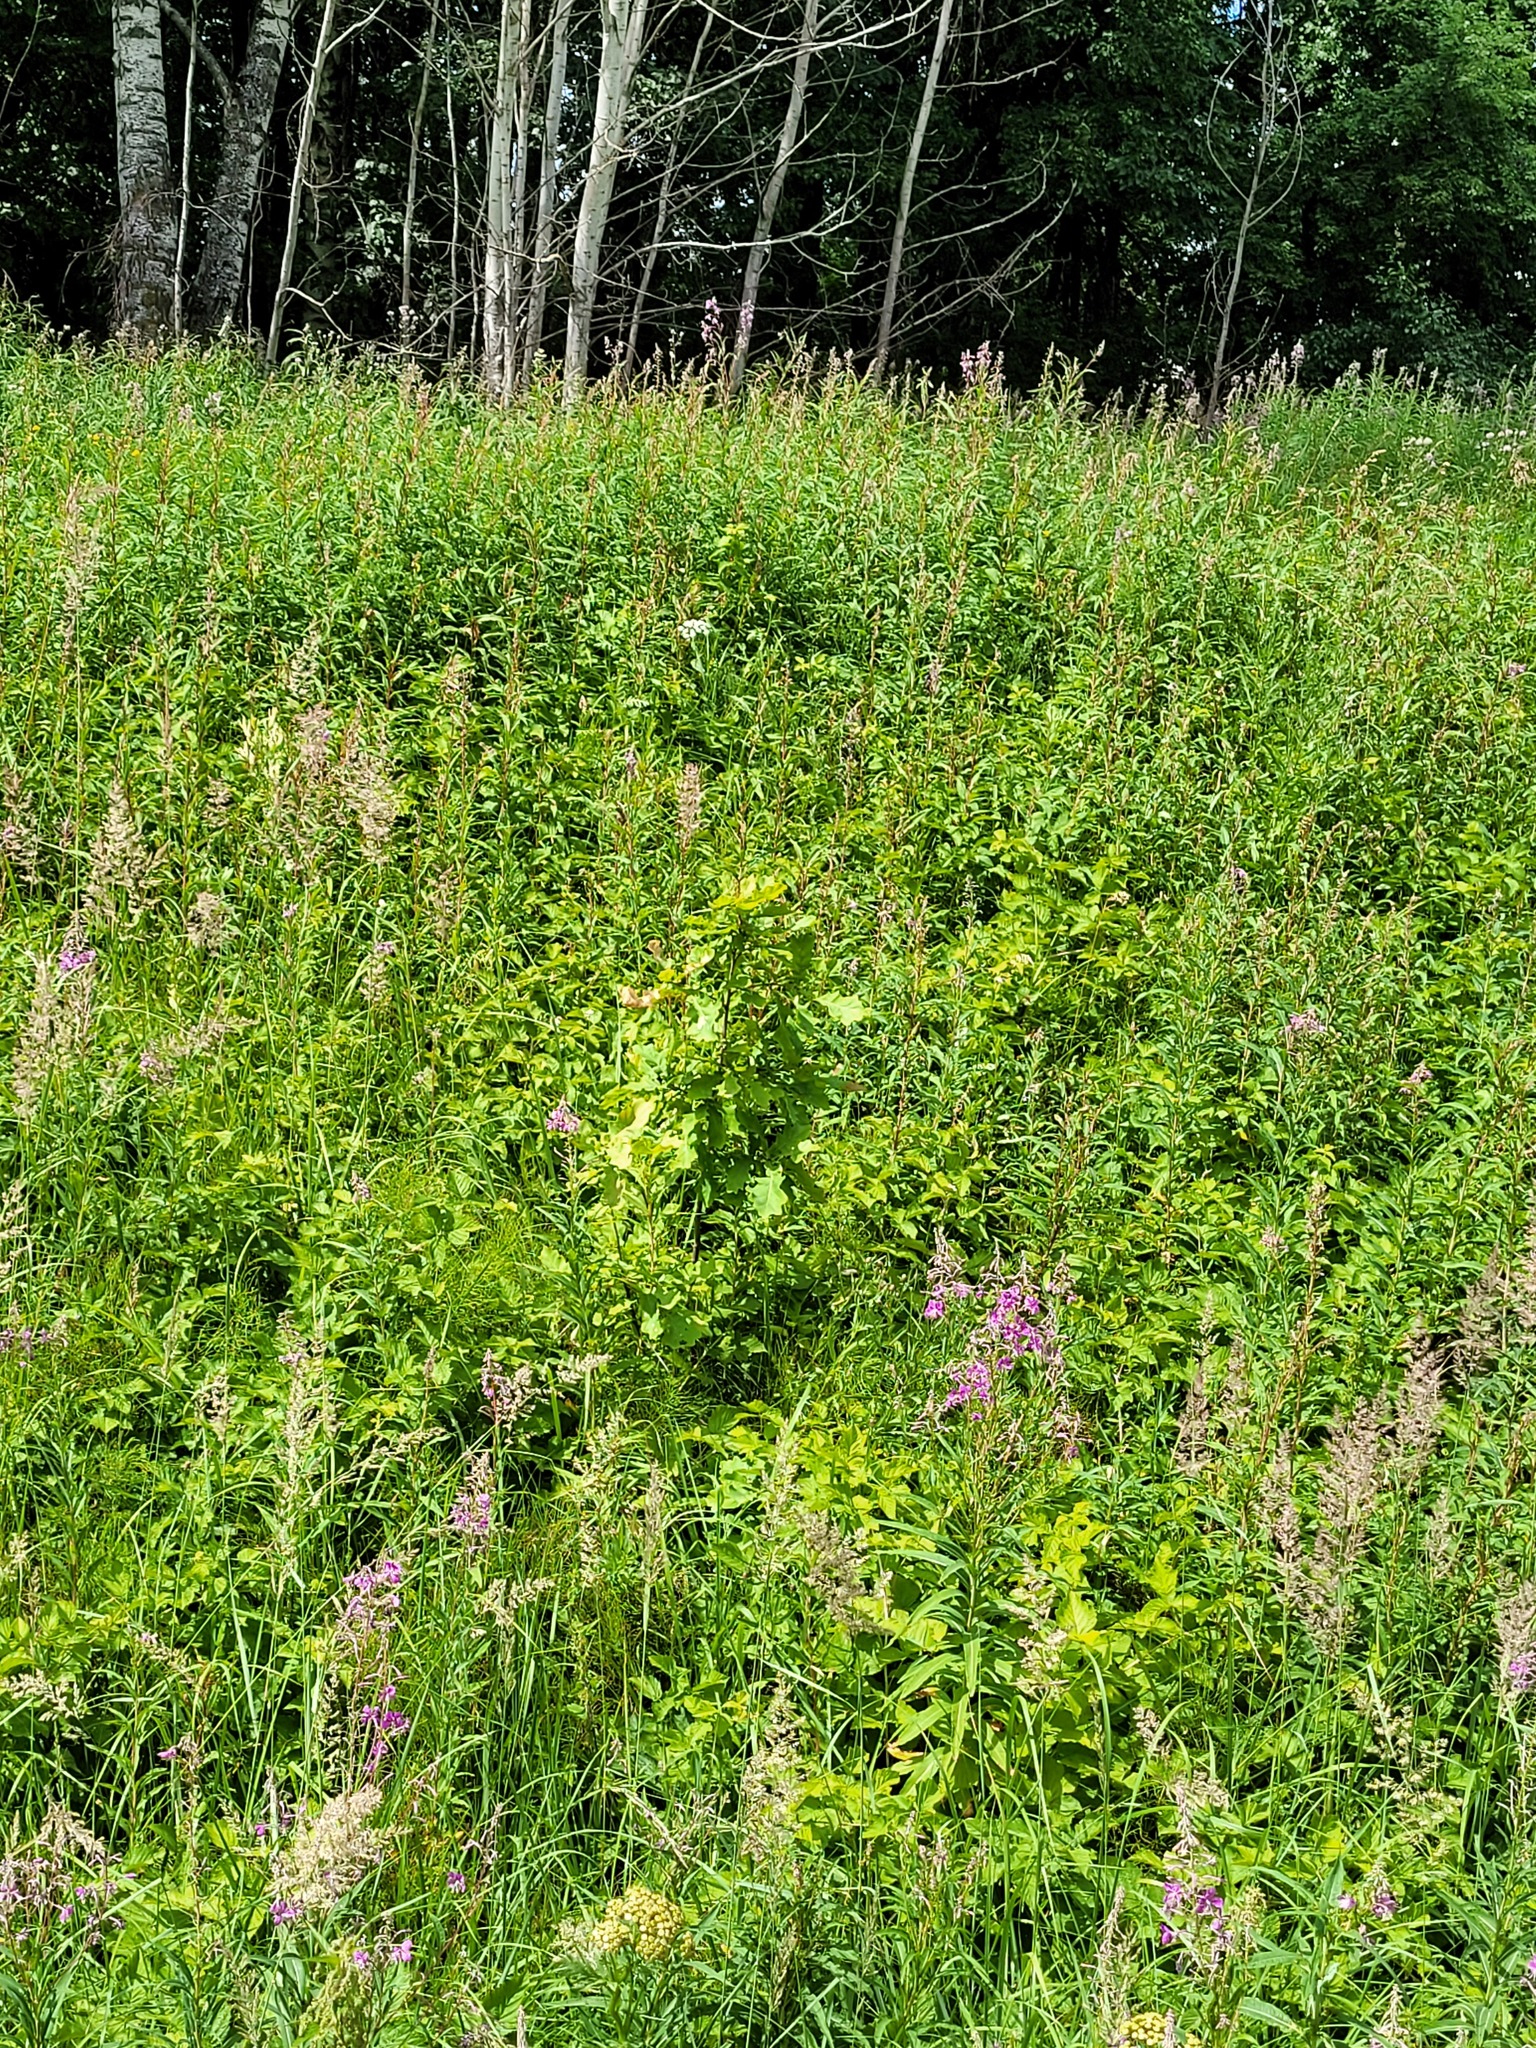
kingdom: Plantae
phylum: Tracheophyta
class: Magnoliopsida
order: Fagales
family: Fagaceae
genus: Quercus
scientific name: Quercus robur
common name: Pedunculate oak
